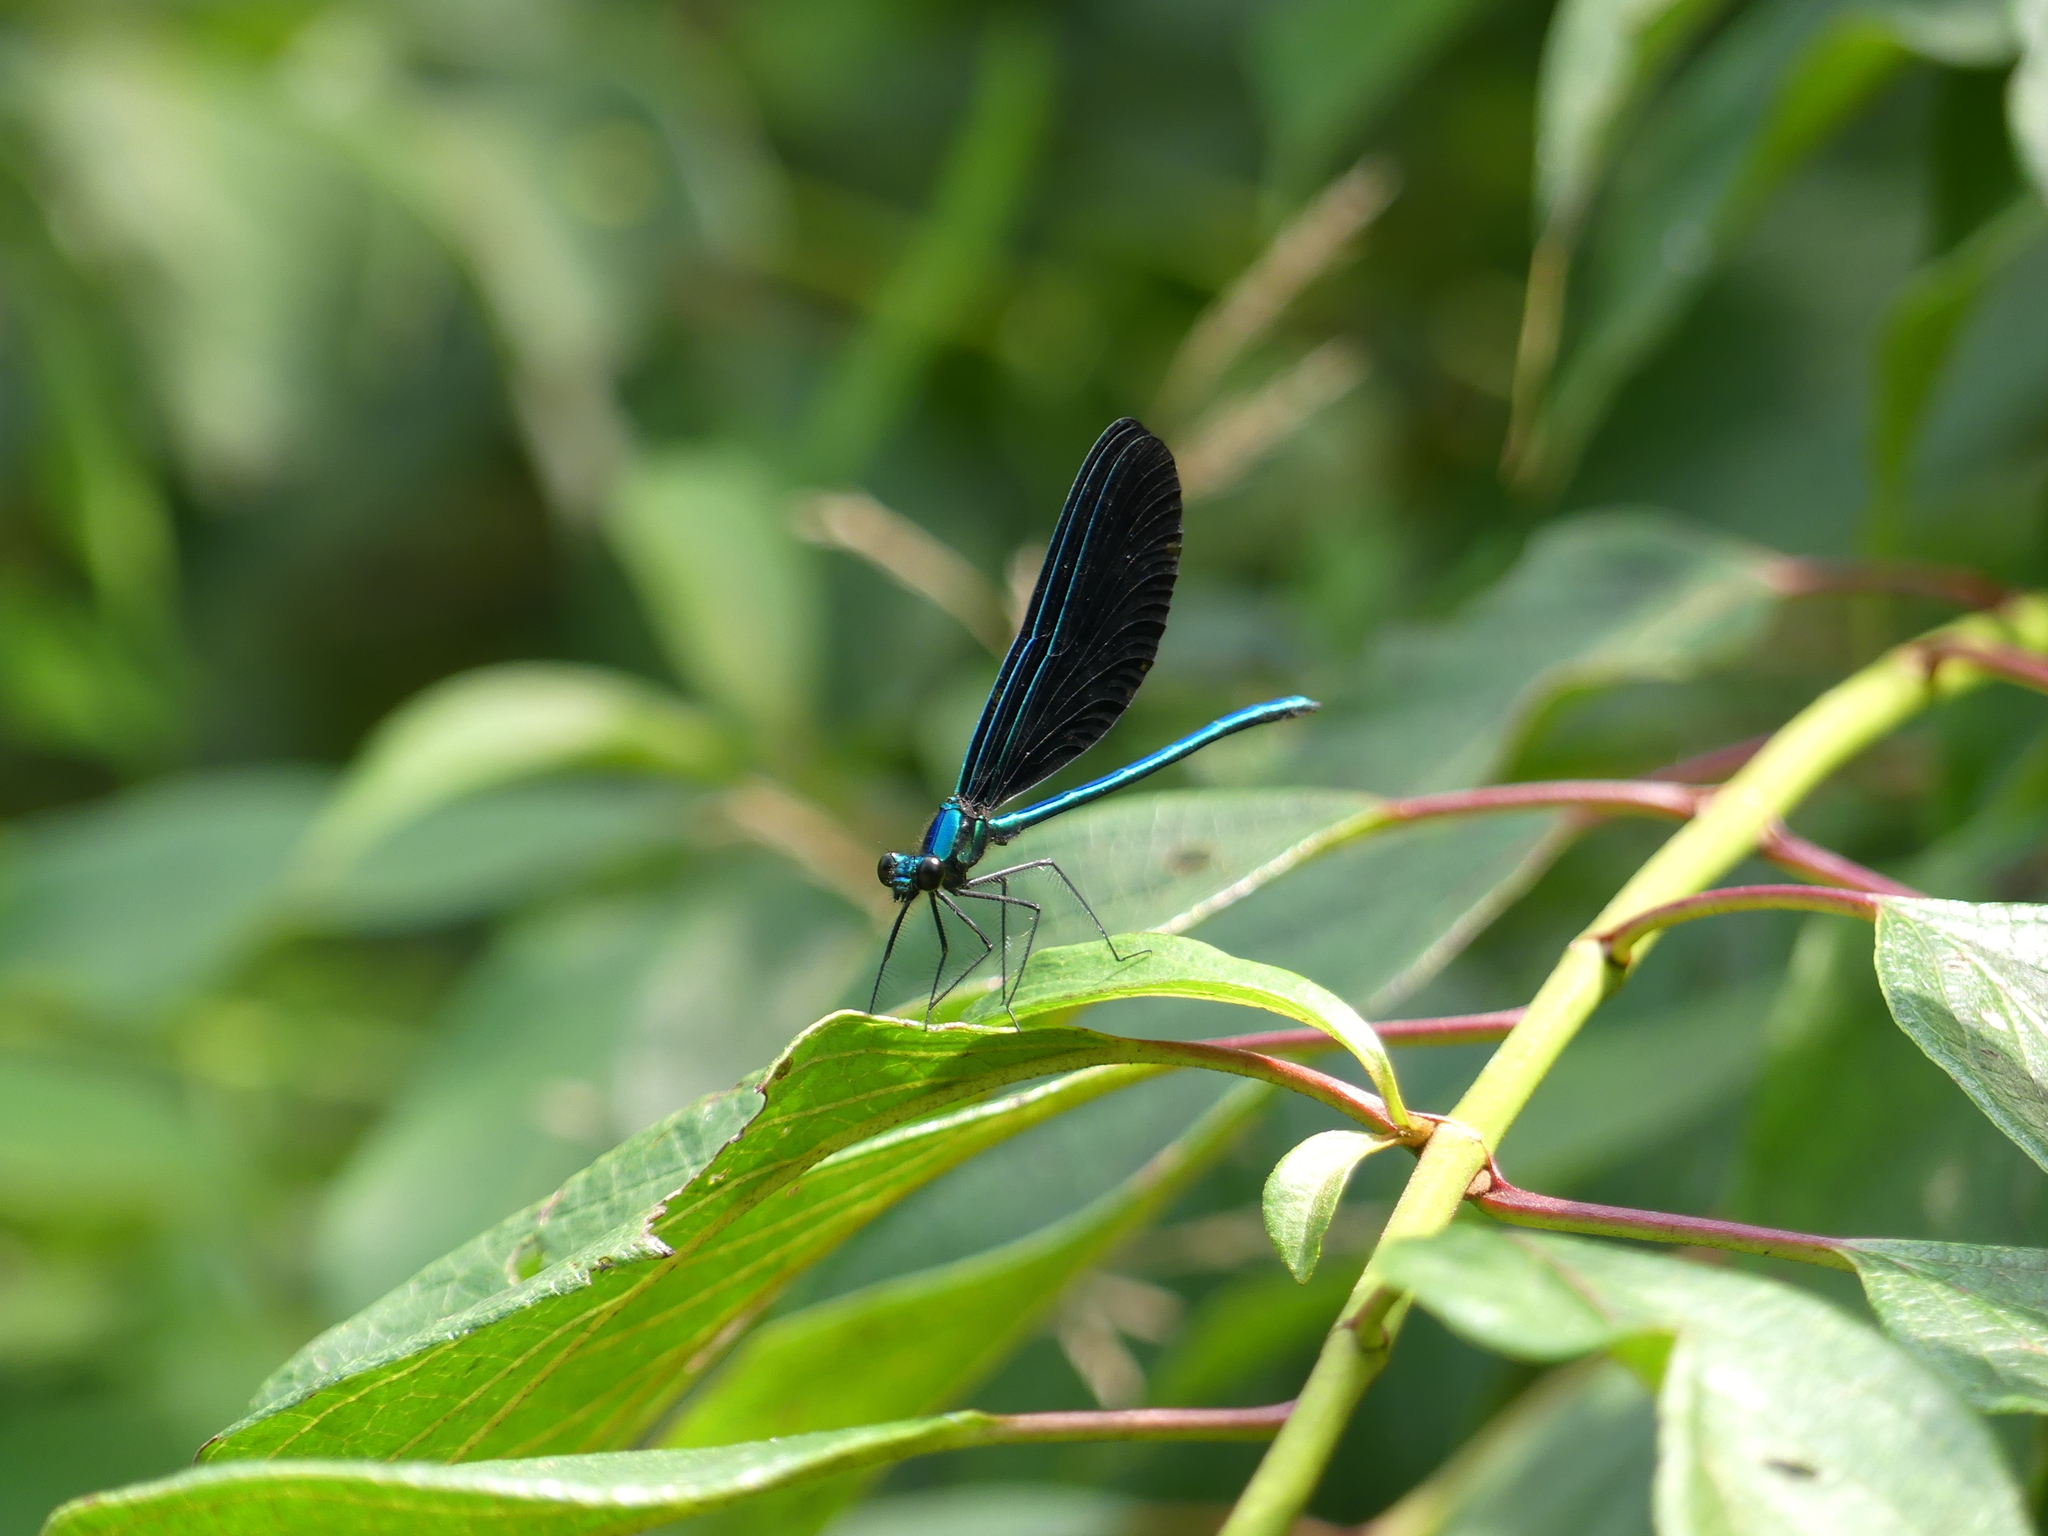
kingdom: Animalia
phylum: Arthropoda
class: Insecta
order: Odonata
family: Calopterygidae
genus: Calopteryx
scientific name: Calopteryx maculata
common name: Ebony jewelwing
